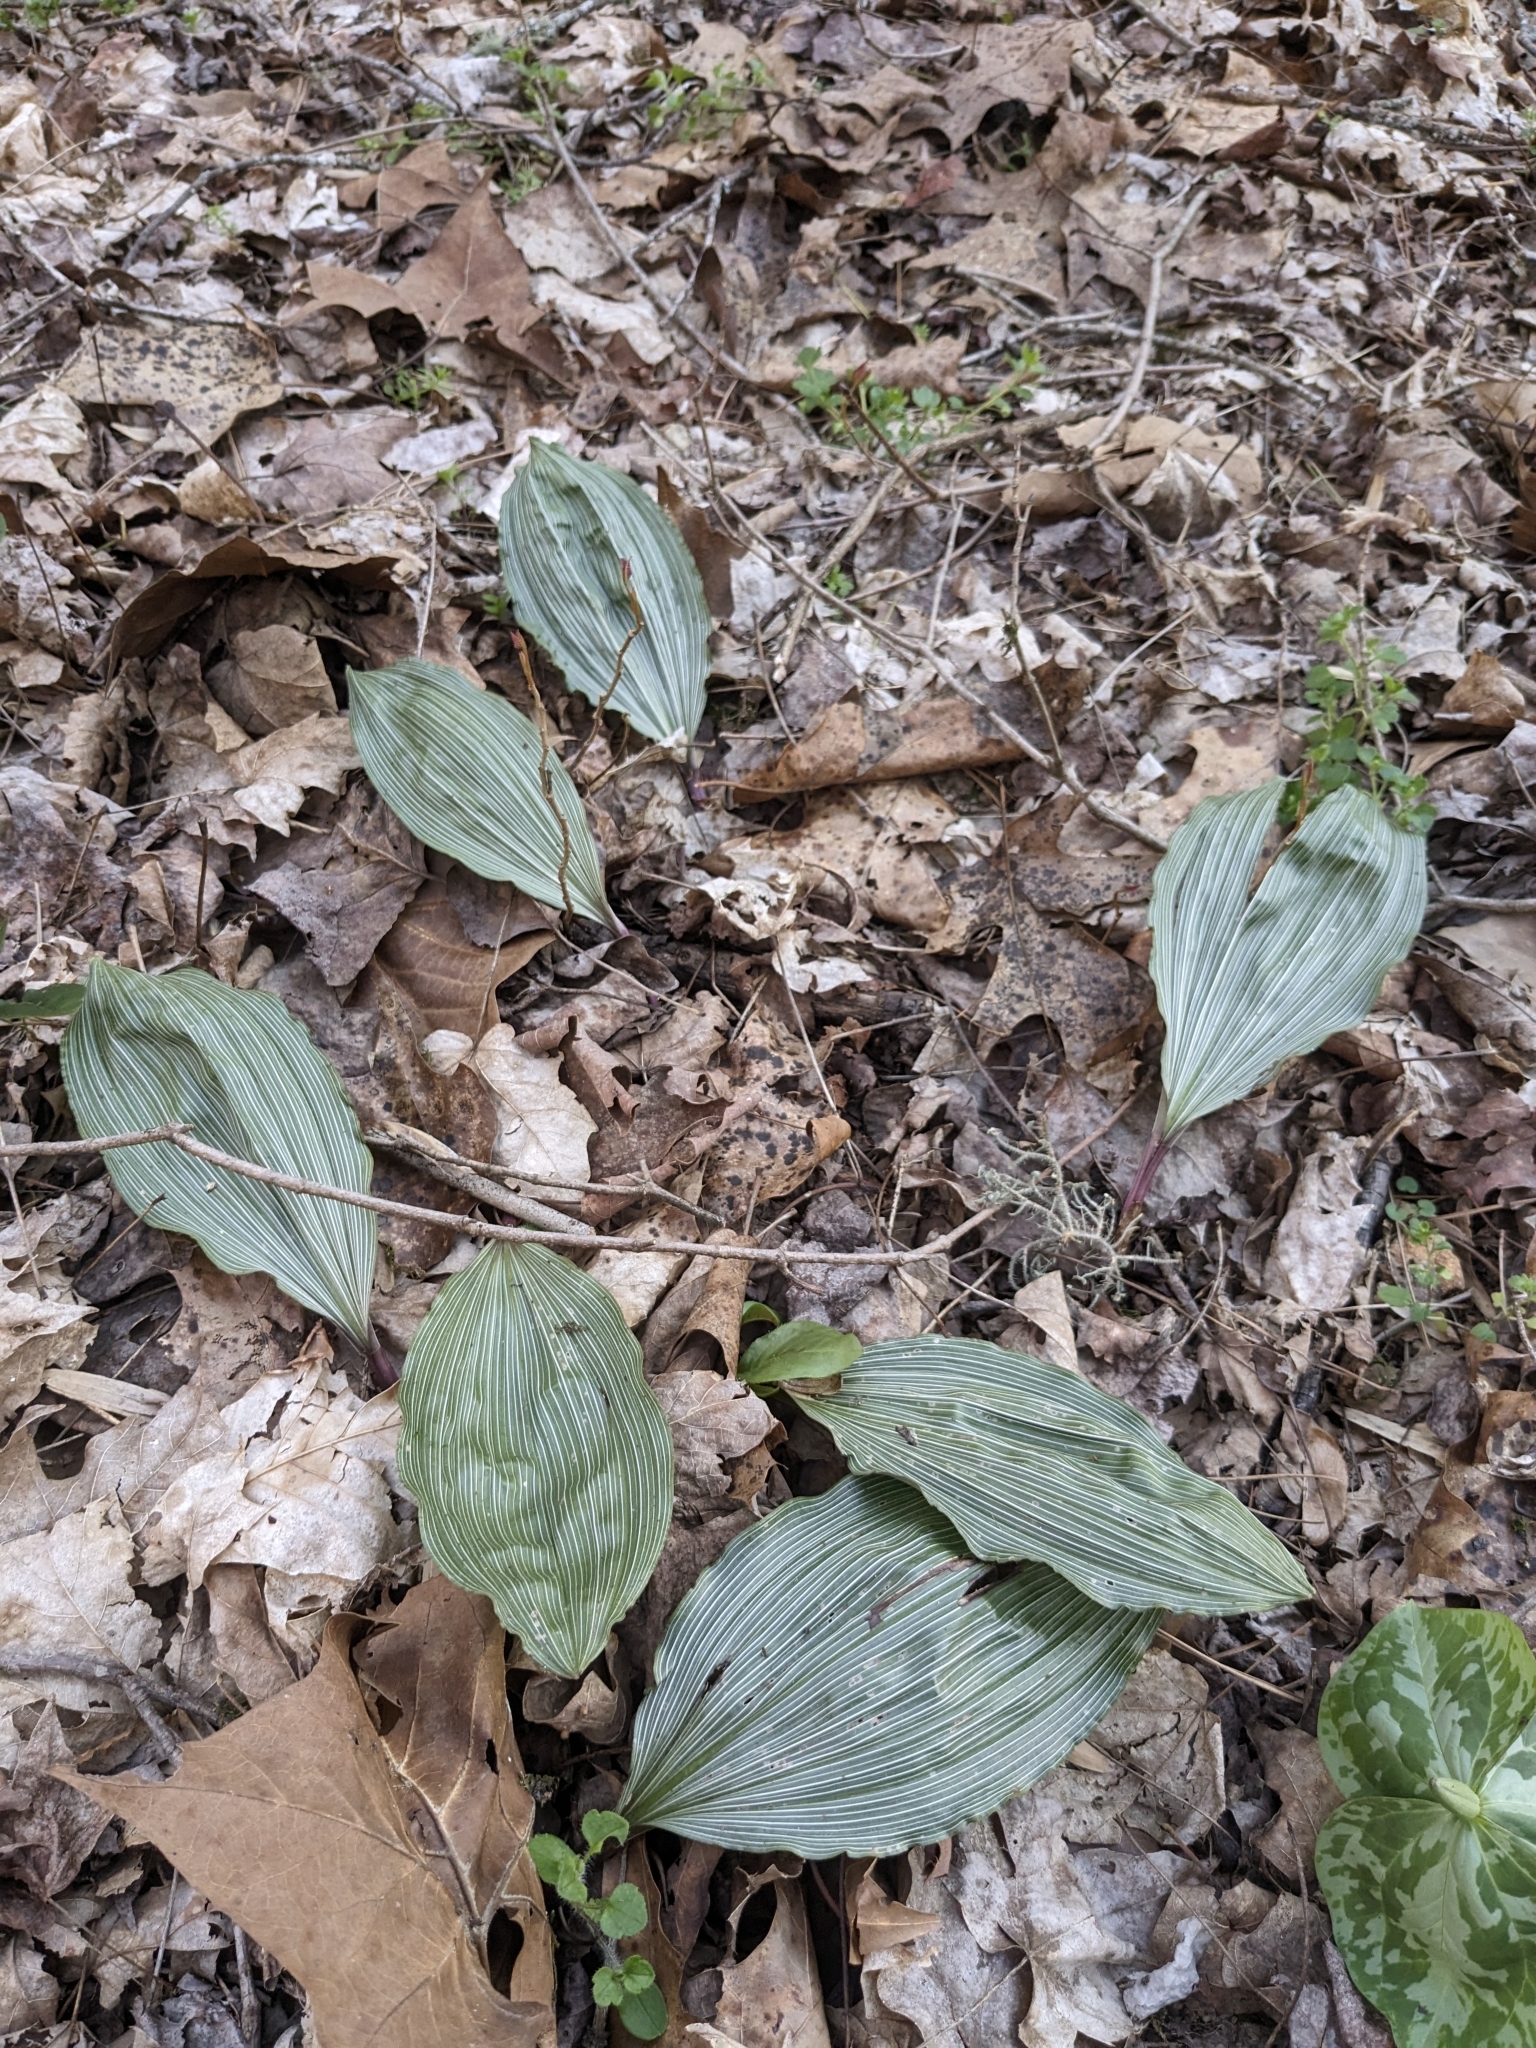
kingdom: Plantae
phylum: Tracheophyta
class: Liliopsida
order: Asparagales
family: Orchidaceae
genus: Aplectrum
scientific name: Aplectrum hyemale
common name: Adam-and-eve
